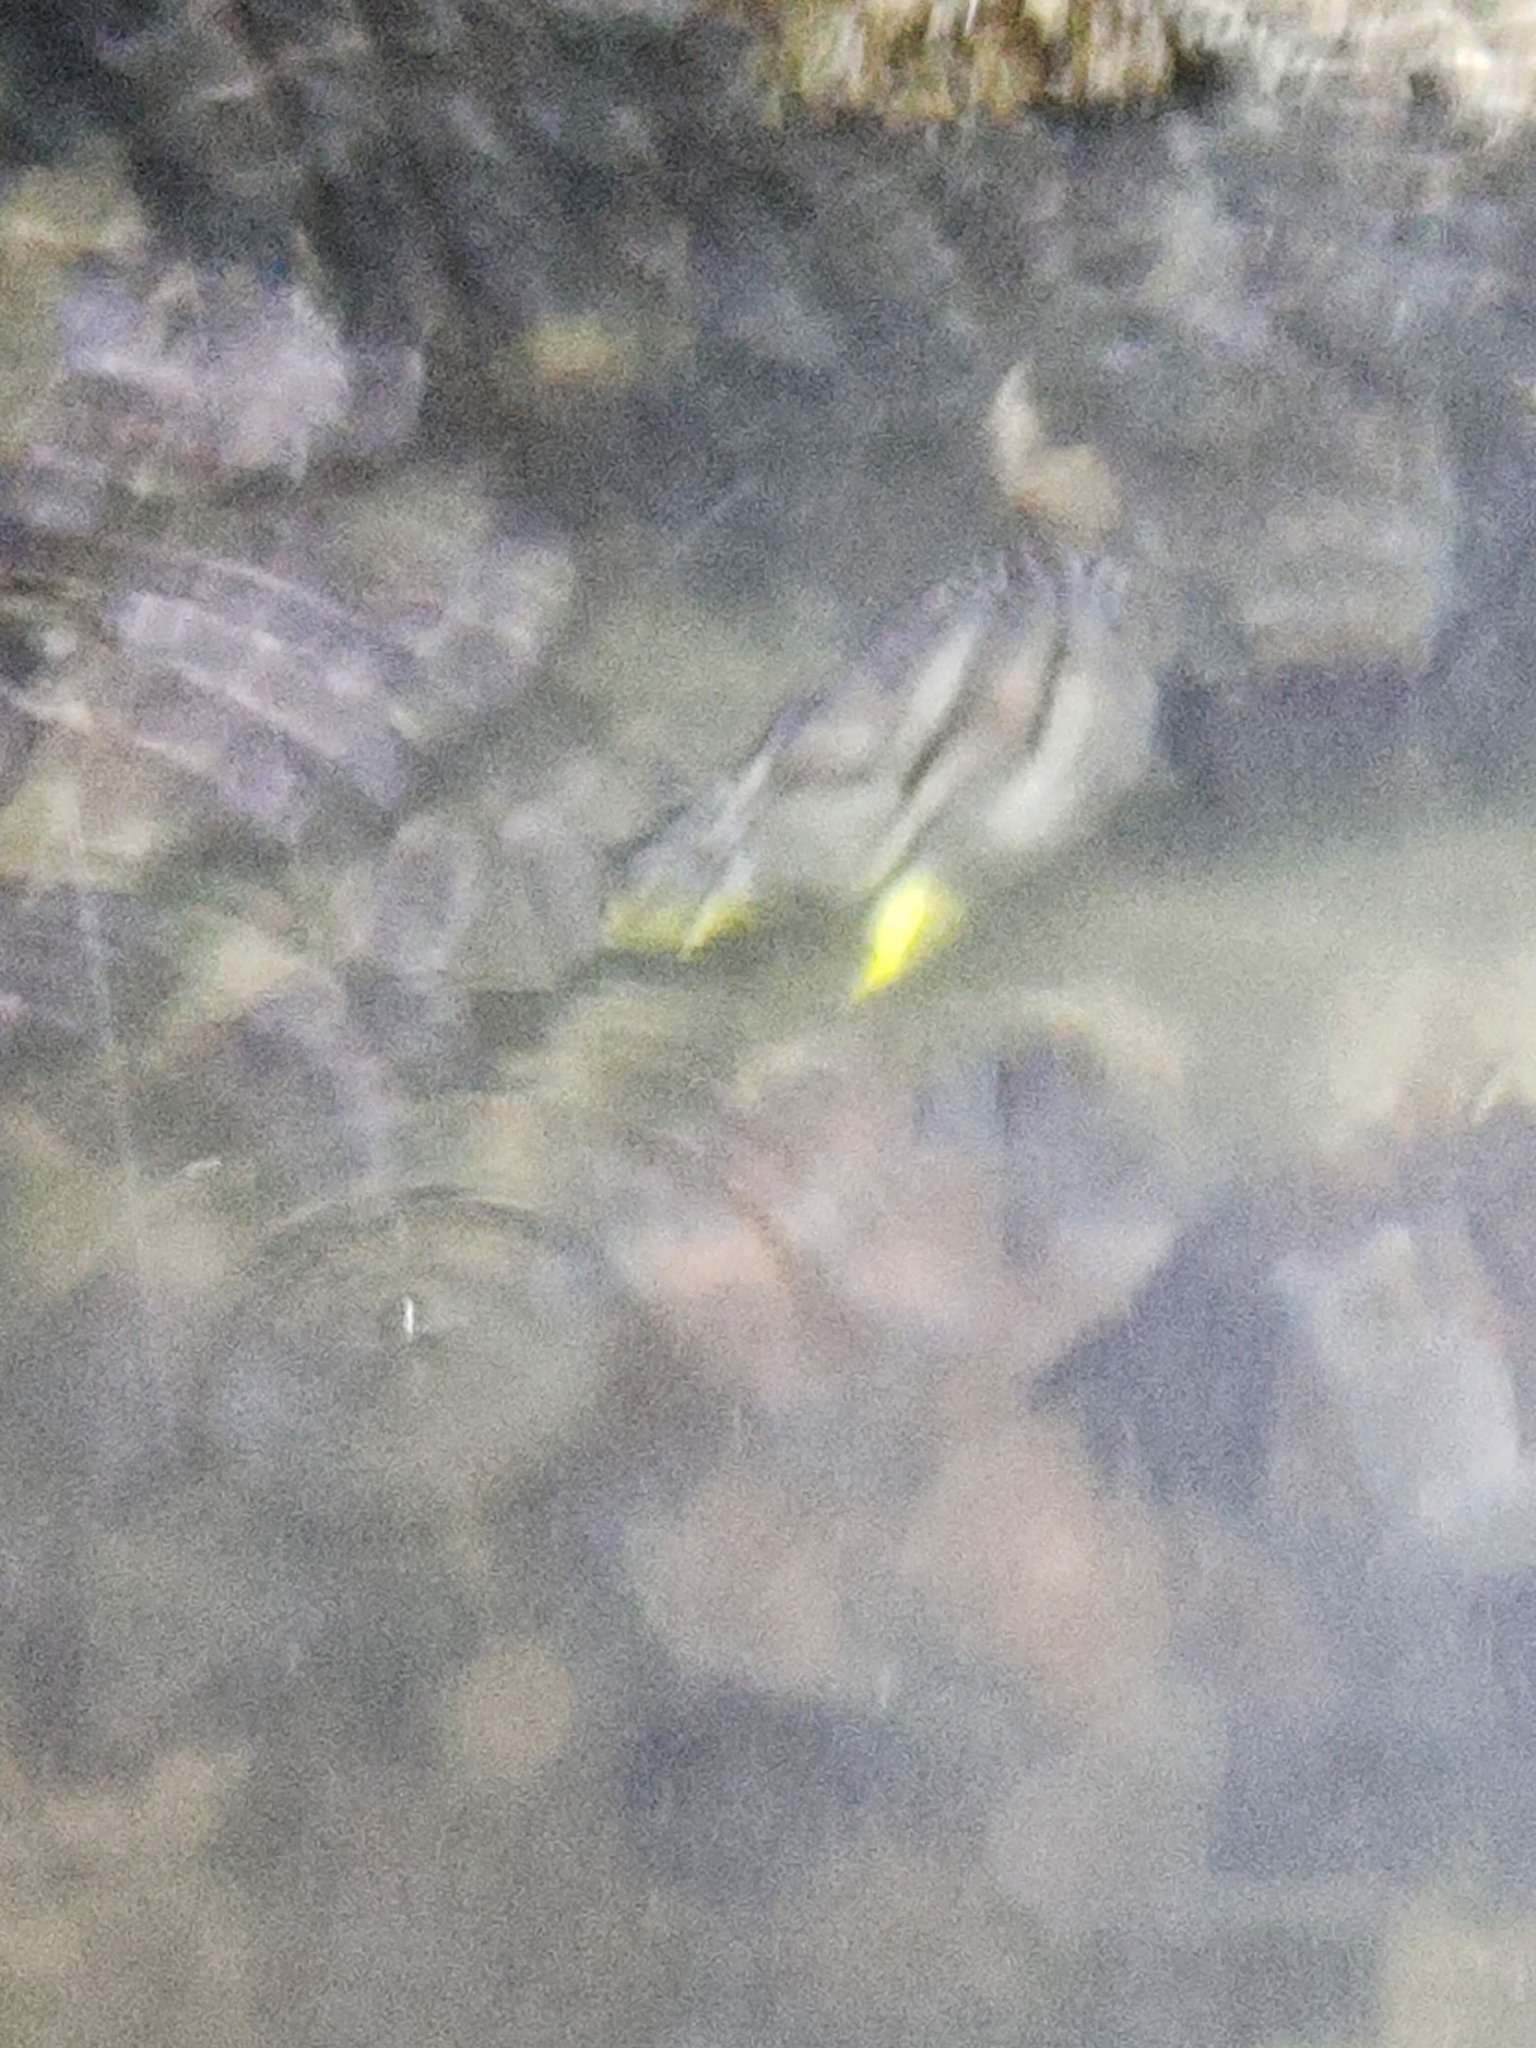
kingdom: Animalia
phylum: Chordata
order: Perciformes
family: Chaetodontidae
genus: Chaetodon
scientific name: Chaetodon octofasciatus
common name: Eightband butterflyfish
